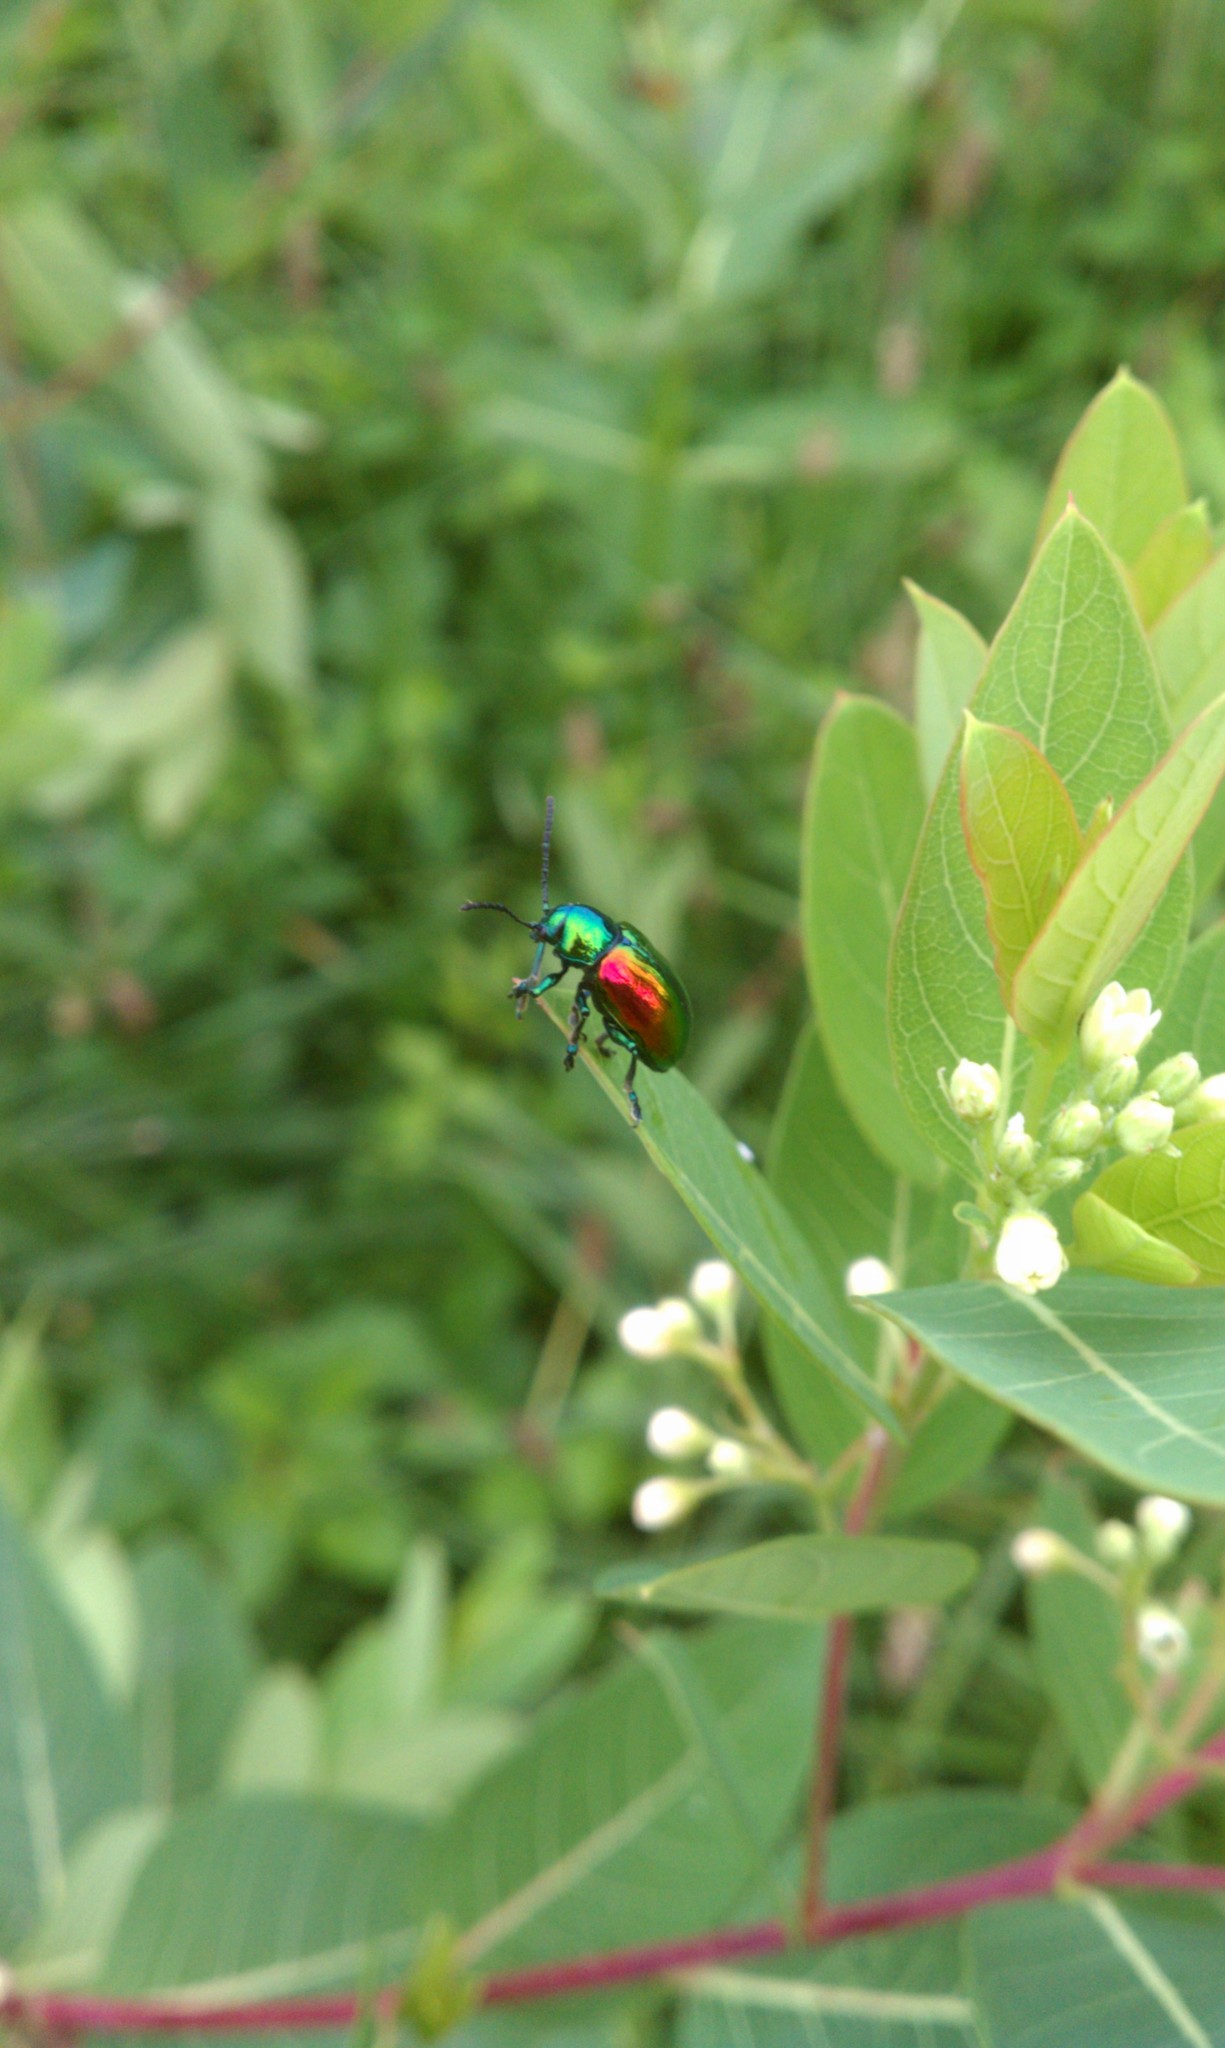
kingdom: Animalia
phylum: Arthropoda
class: Insecta
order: Coleoptera
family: Chrysomelidae
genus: Chrysochus
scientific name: Chrysochus auratus
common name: Dogbane leaf beetle
